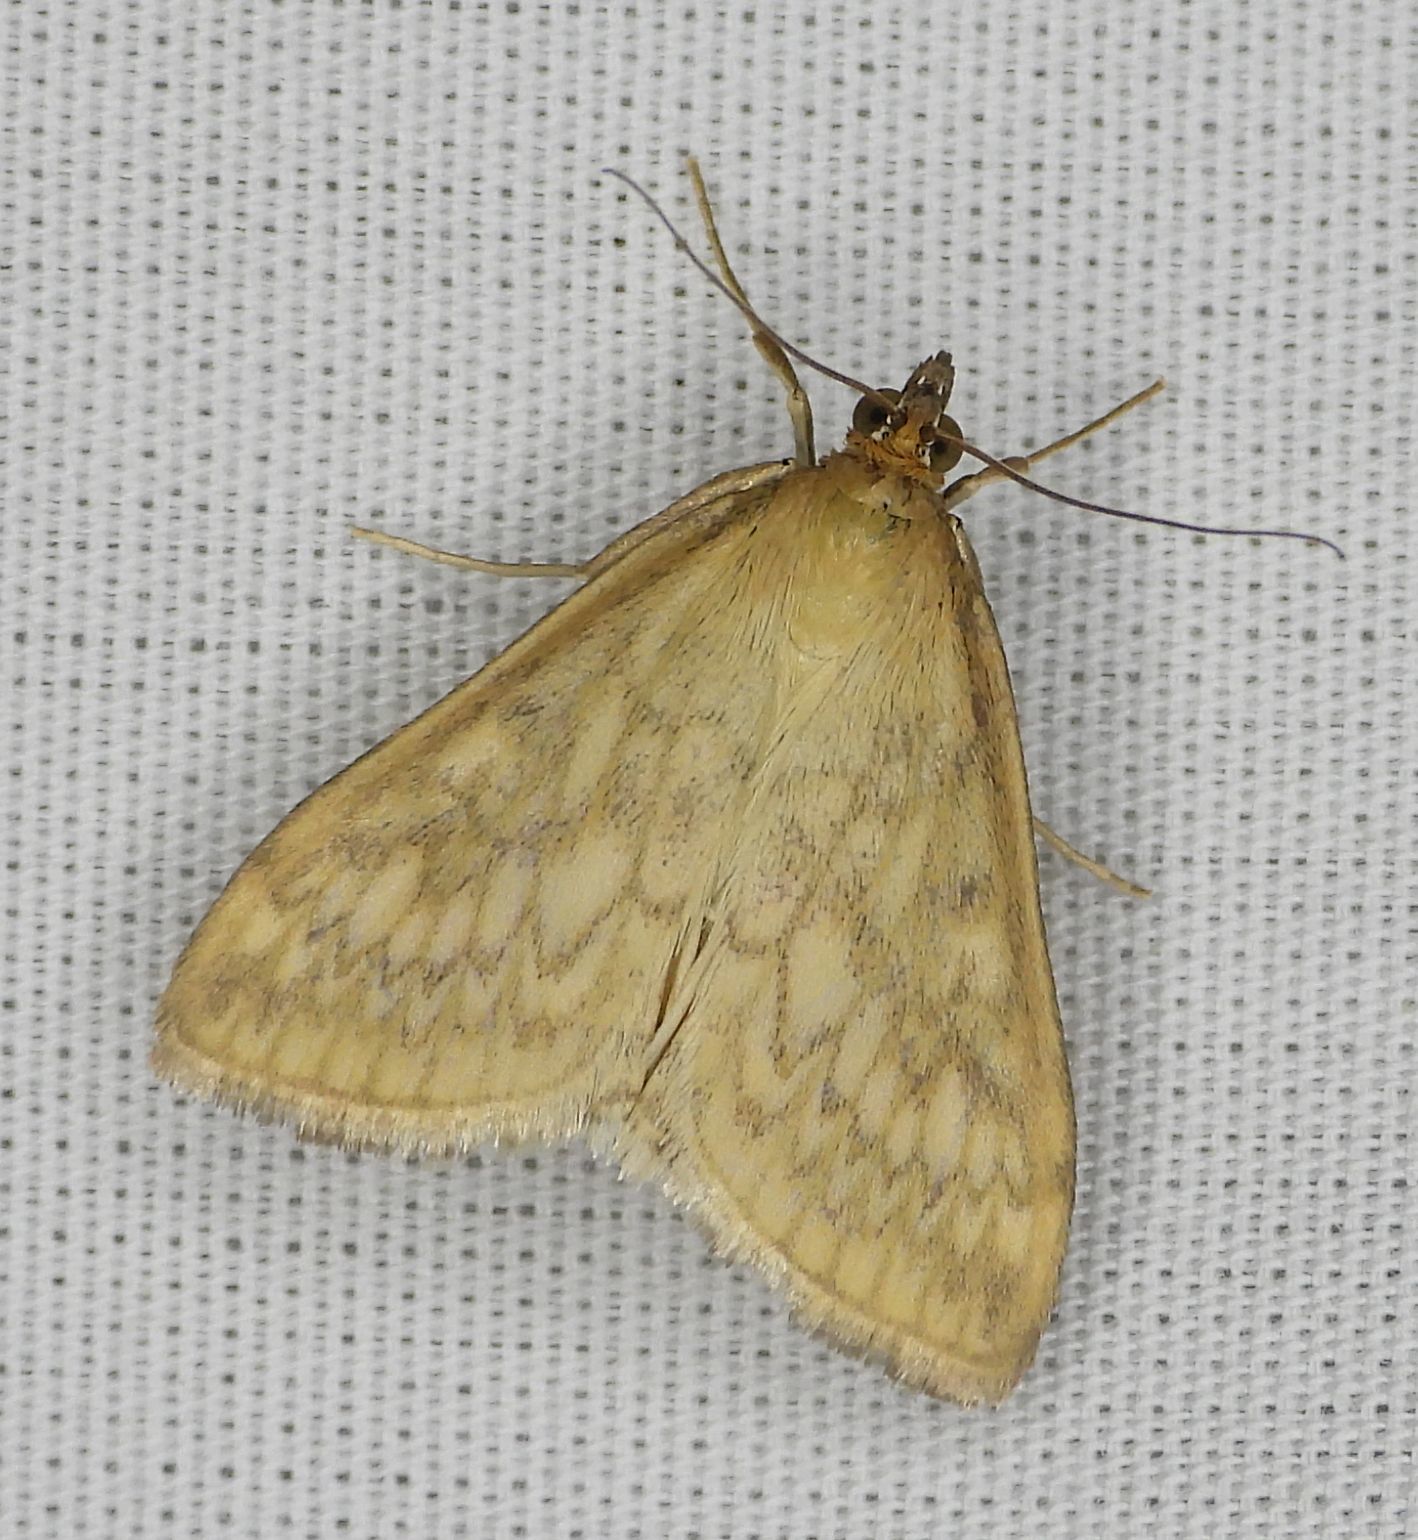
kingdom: Animalia
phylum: Arthropoda
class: Insecta
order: Lepidoptera
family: Crambidae
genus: Sitochroa
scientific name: Sitochroa chortalis
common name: Dimorphic sitochroa moth
